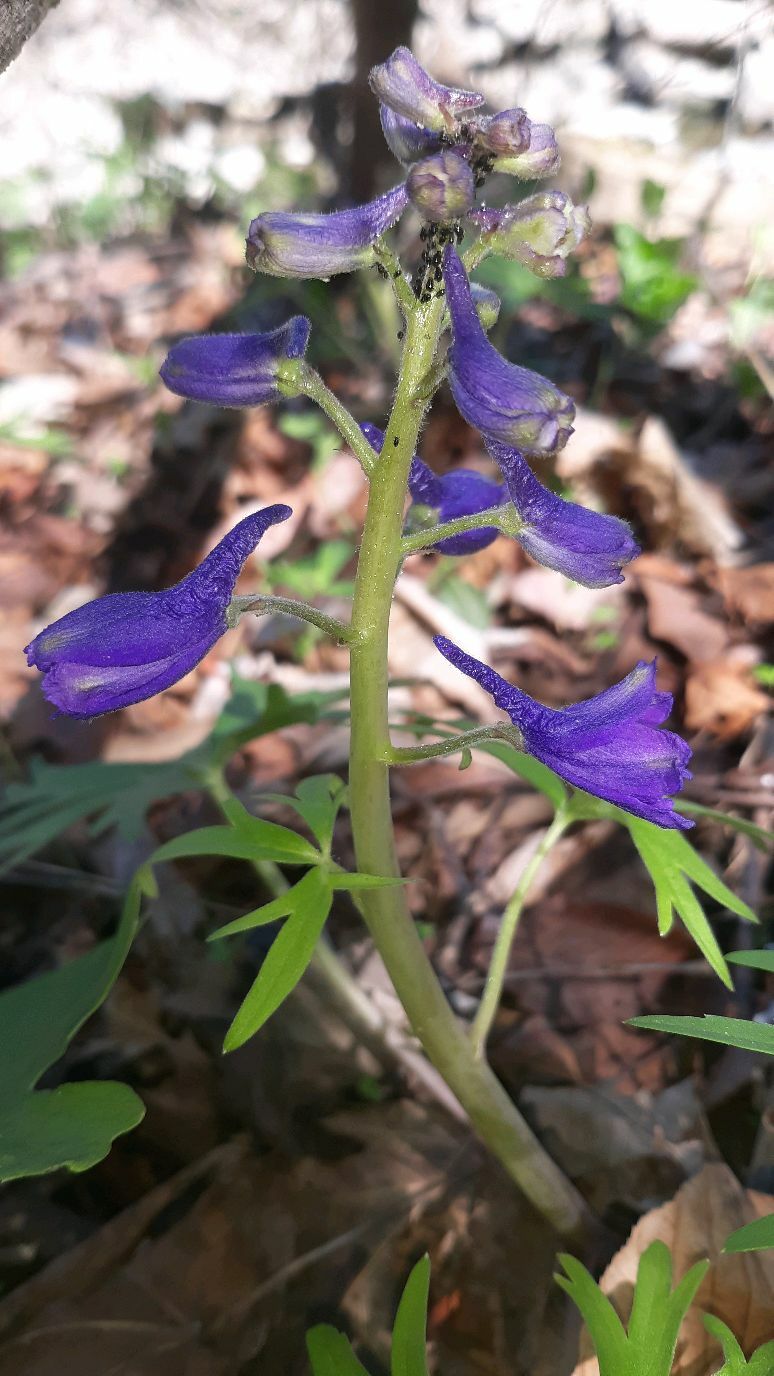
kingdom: Plantae
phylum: Tracheophyta
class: Magnoliopsida
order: Ranunculales
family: Ranunculaceae
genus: Delphinium
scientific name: Delphinium tricorne
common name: Dwarf larkspur
